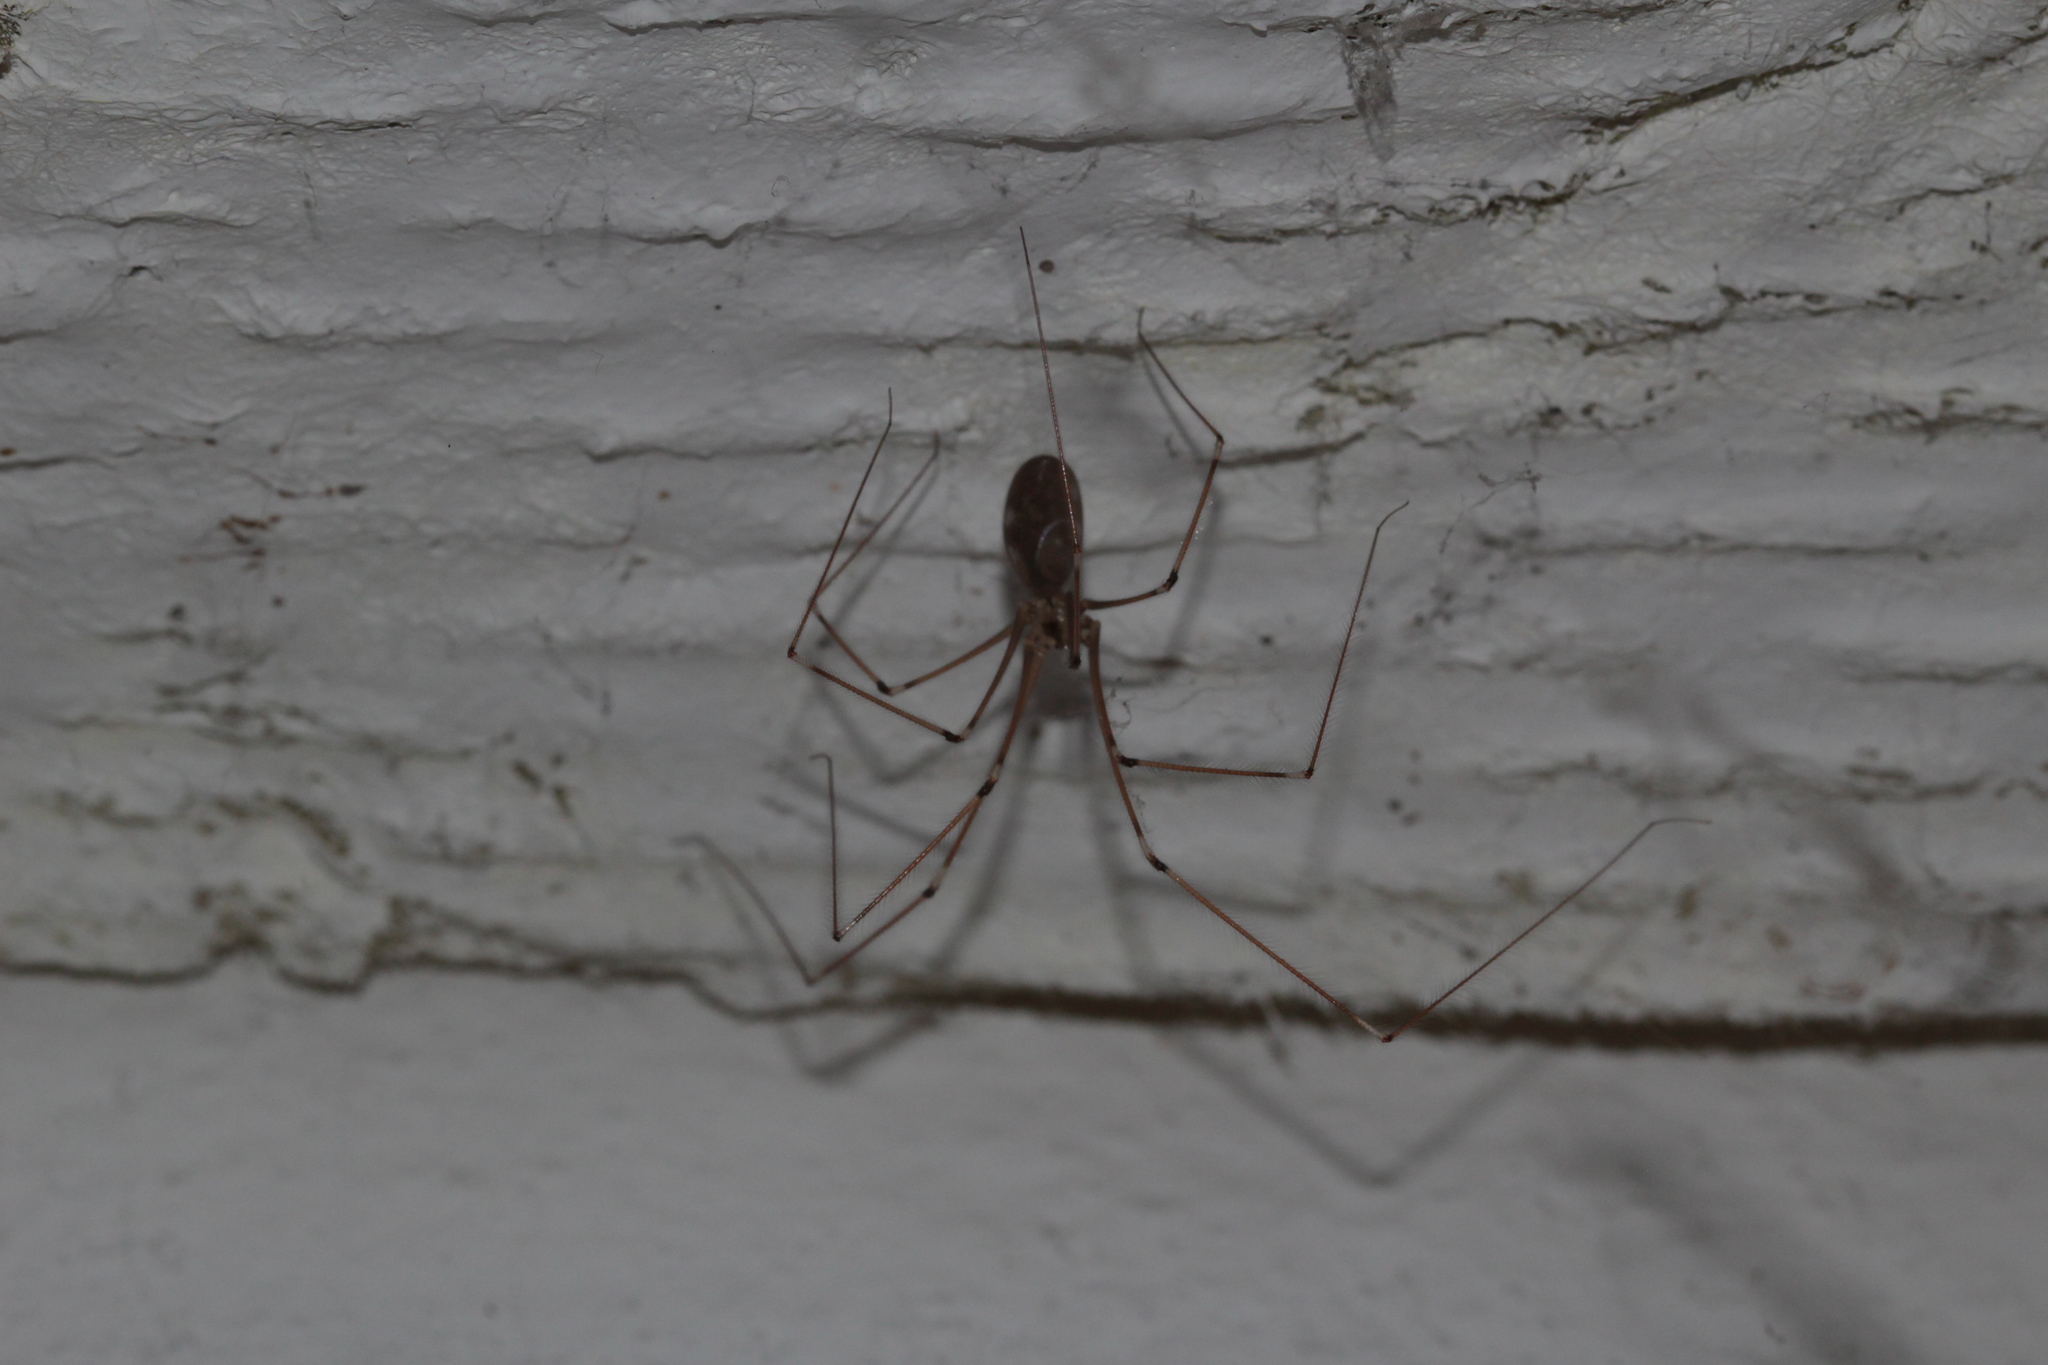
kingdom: Animalia
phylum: Arthropoda
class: Arachnida
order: Araneae
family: Pholcidae
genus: Pholcus
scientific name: Pholcus phalangioides
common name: Longbodied cellar spider
